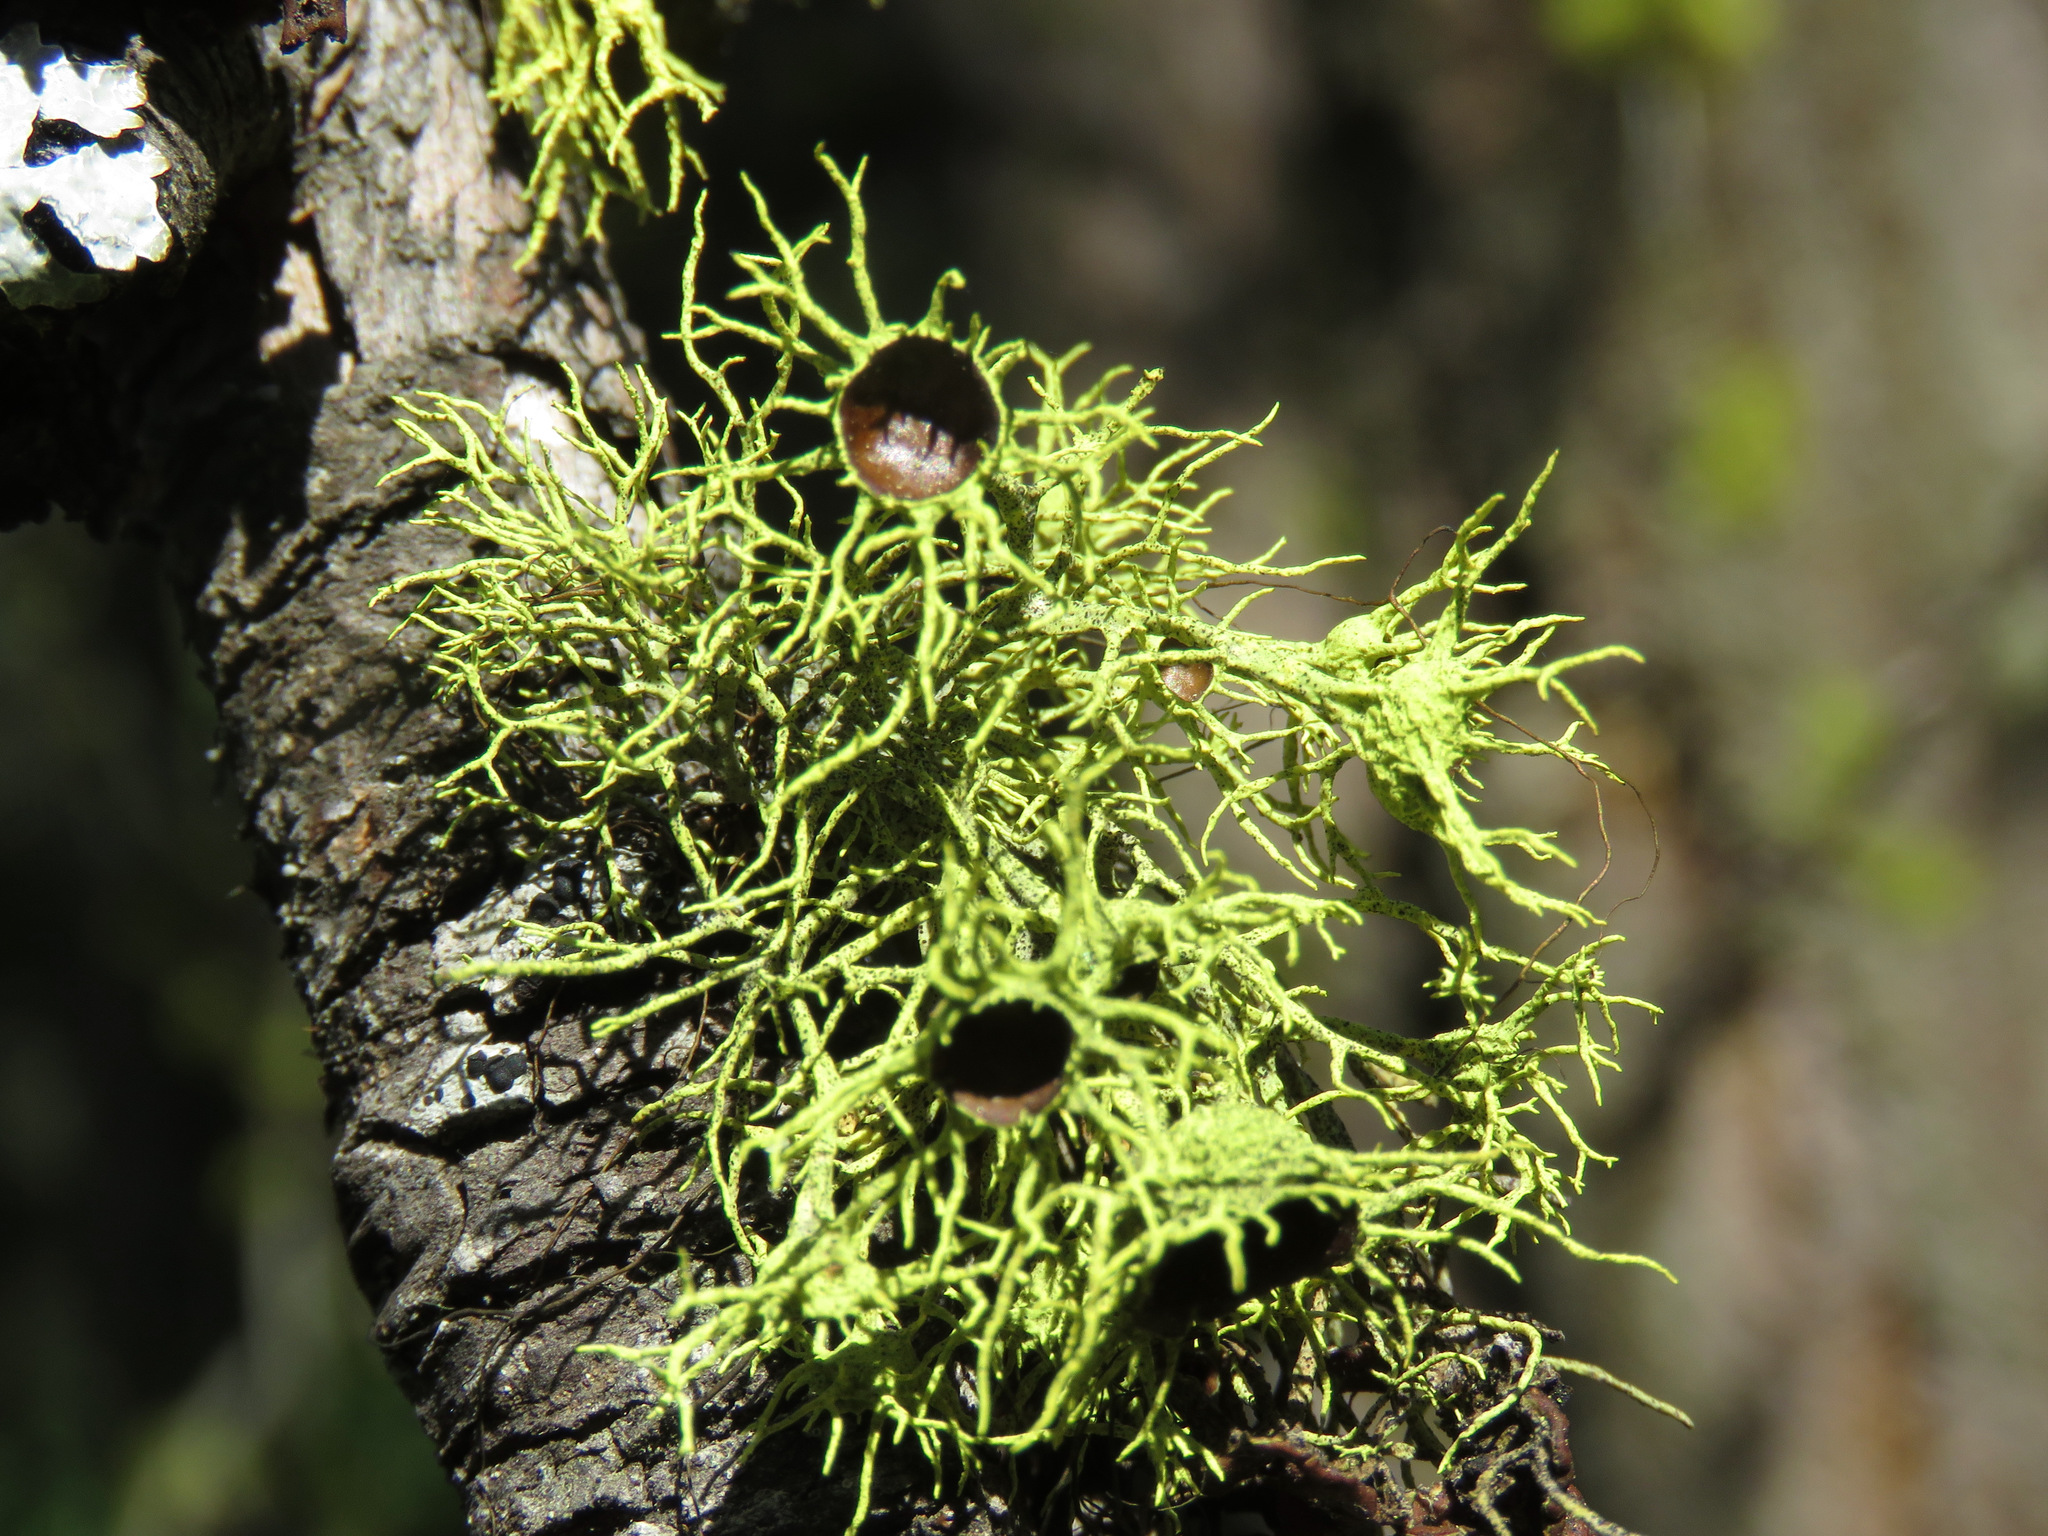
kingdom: Fungi
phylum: Ascomycota
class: Lecanoromycetes
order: Lecanorales
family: Parmeliaceae
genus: Letharia
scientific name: Letharia columbiana
